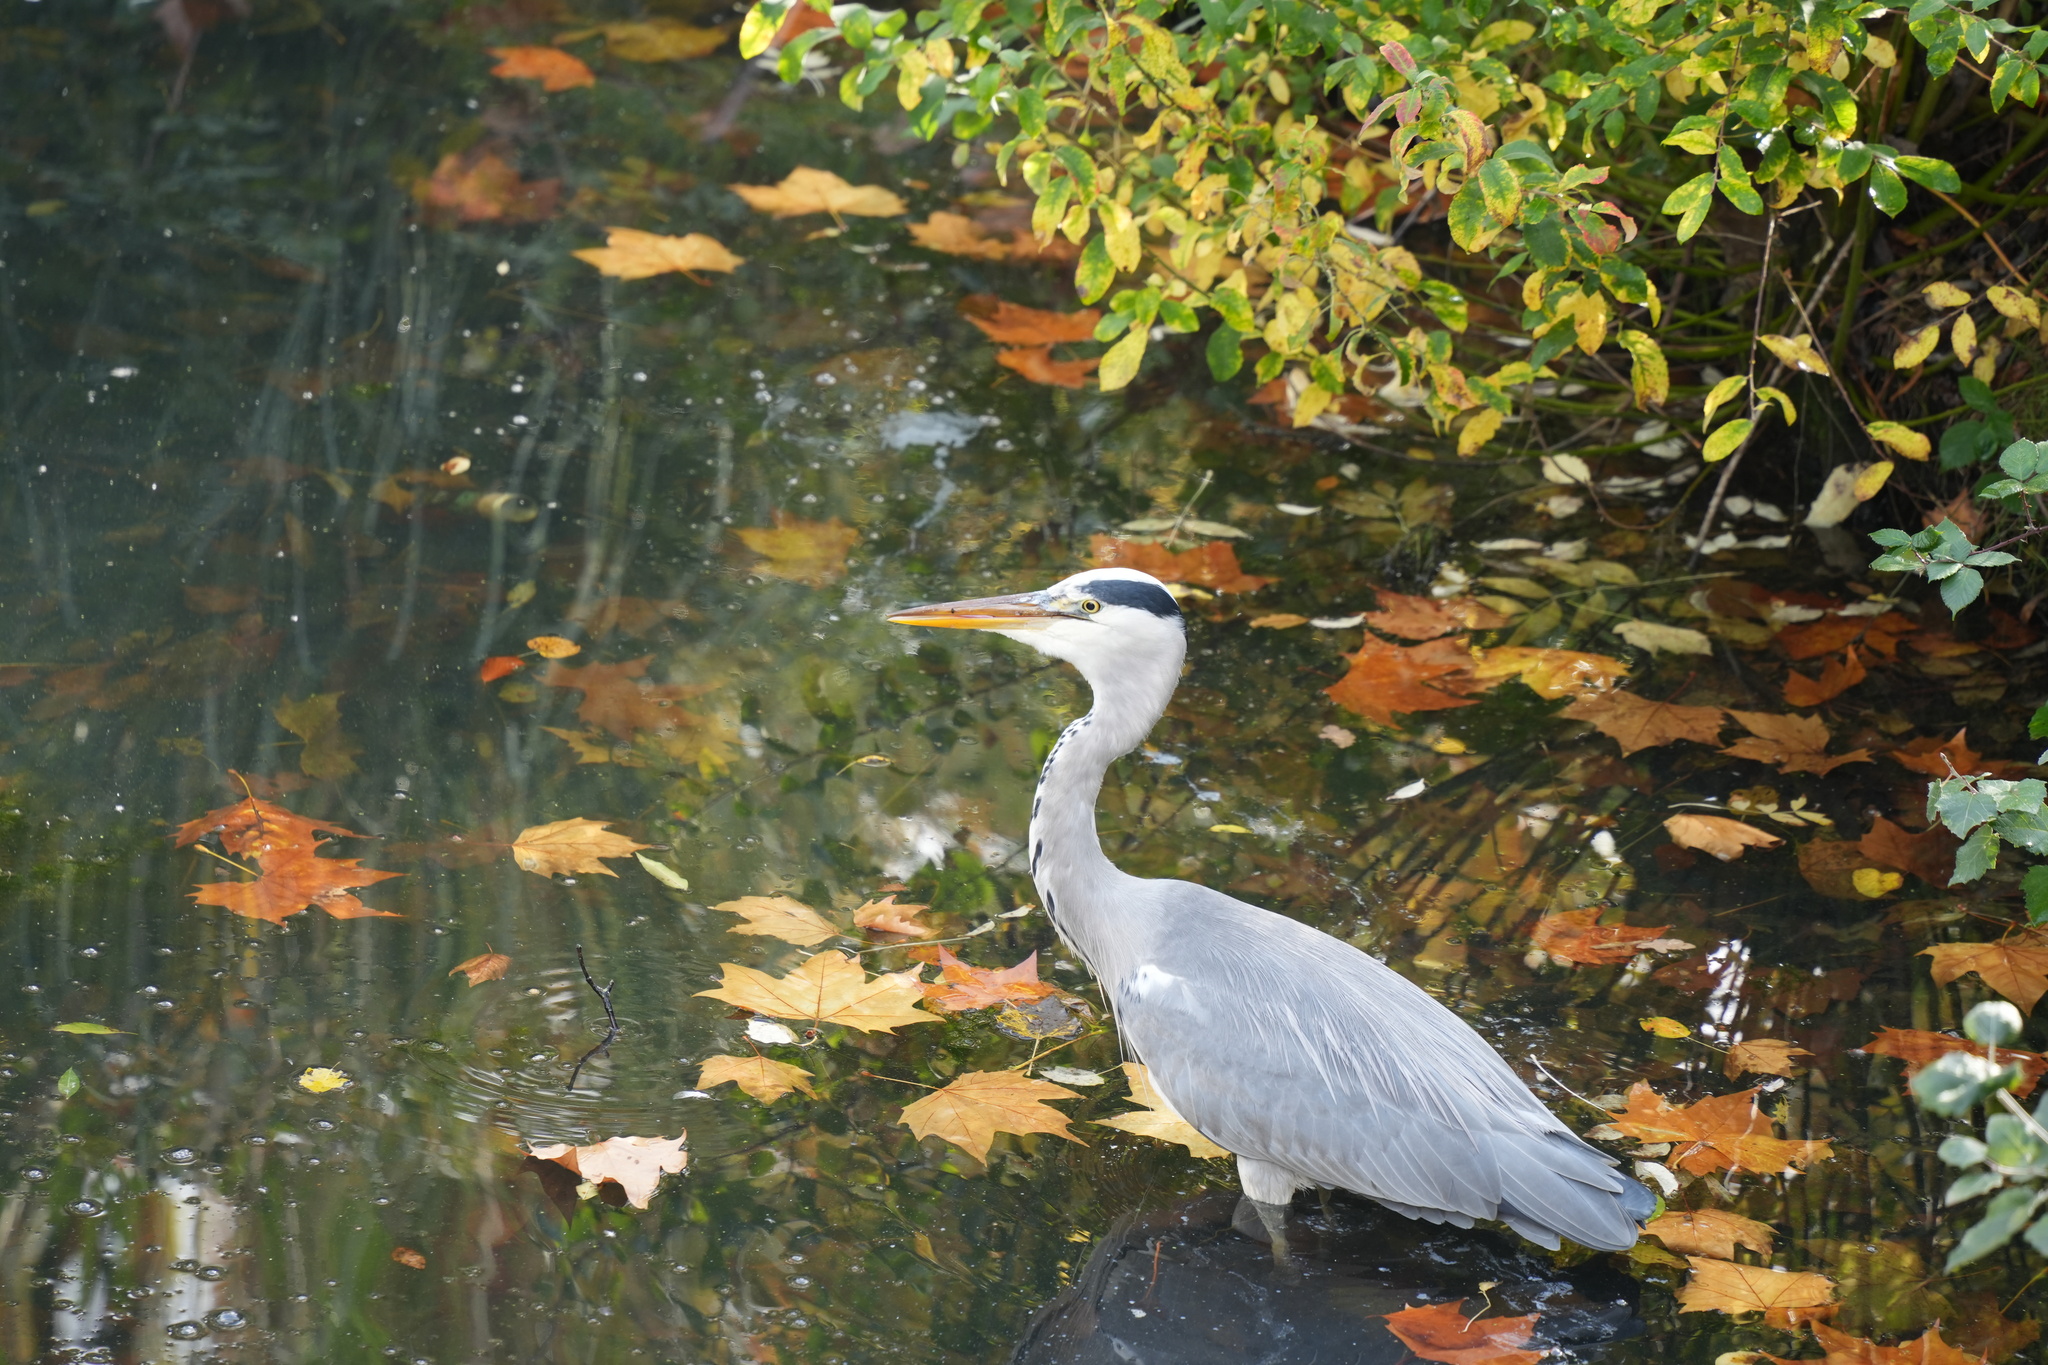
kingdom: Animalia
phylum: Chordata
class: Aves
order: Pelecaniformes
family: Ardeidae
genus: Ardea
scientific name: Ardea cinerea
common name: Grey heron
